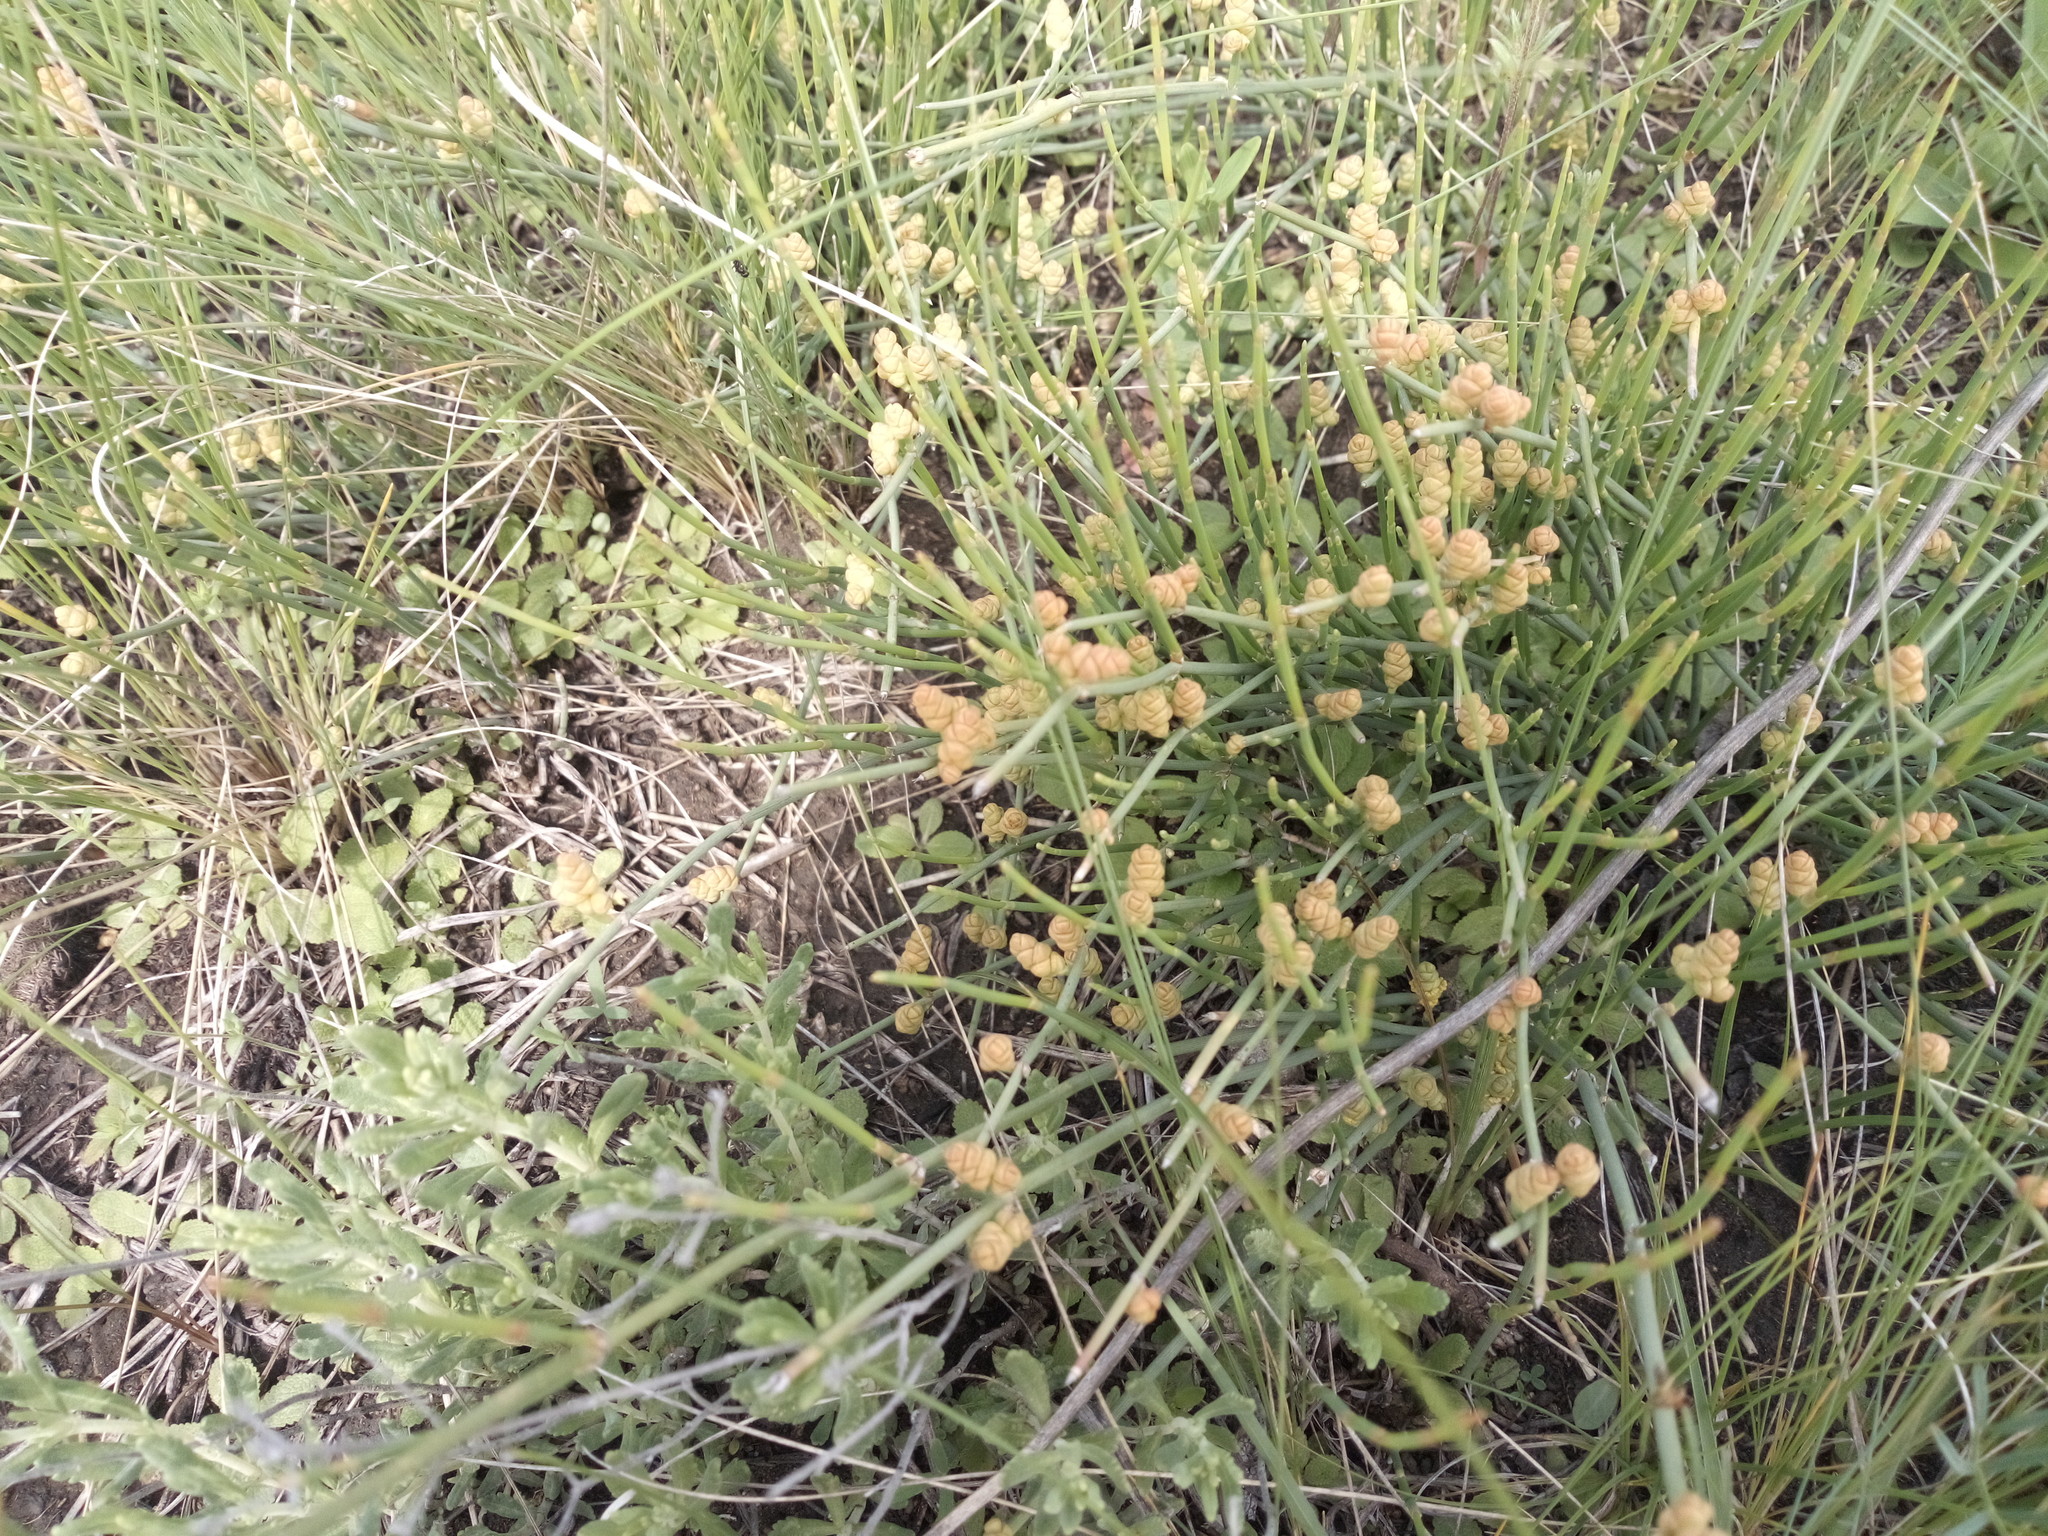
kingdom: Plantae
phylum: Tracheophyta
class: Gnetopsida
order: Ephedrales
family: Ephedraceae
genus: Ephedra
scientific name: Ephedra distachya
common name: Sea grape
